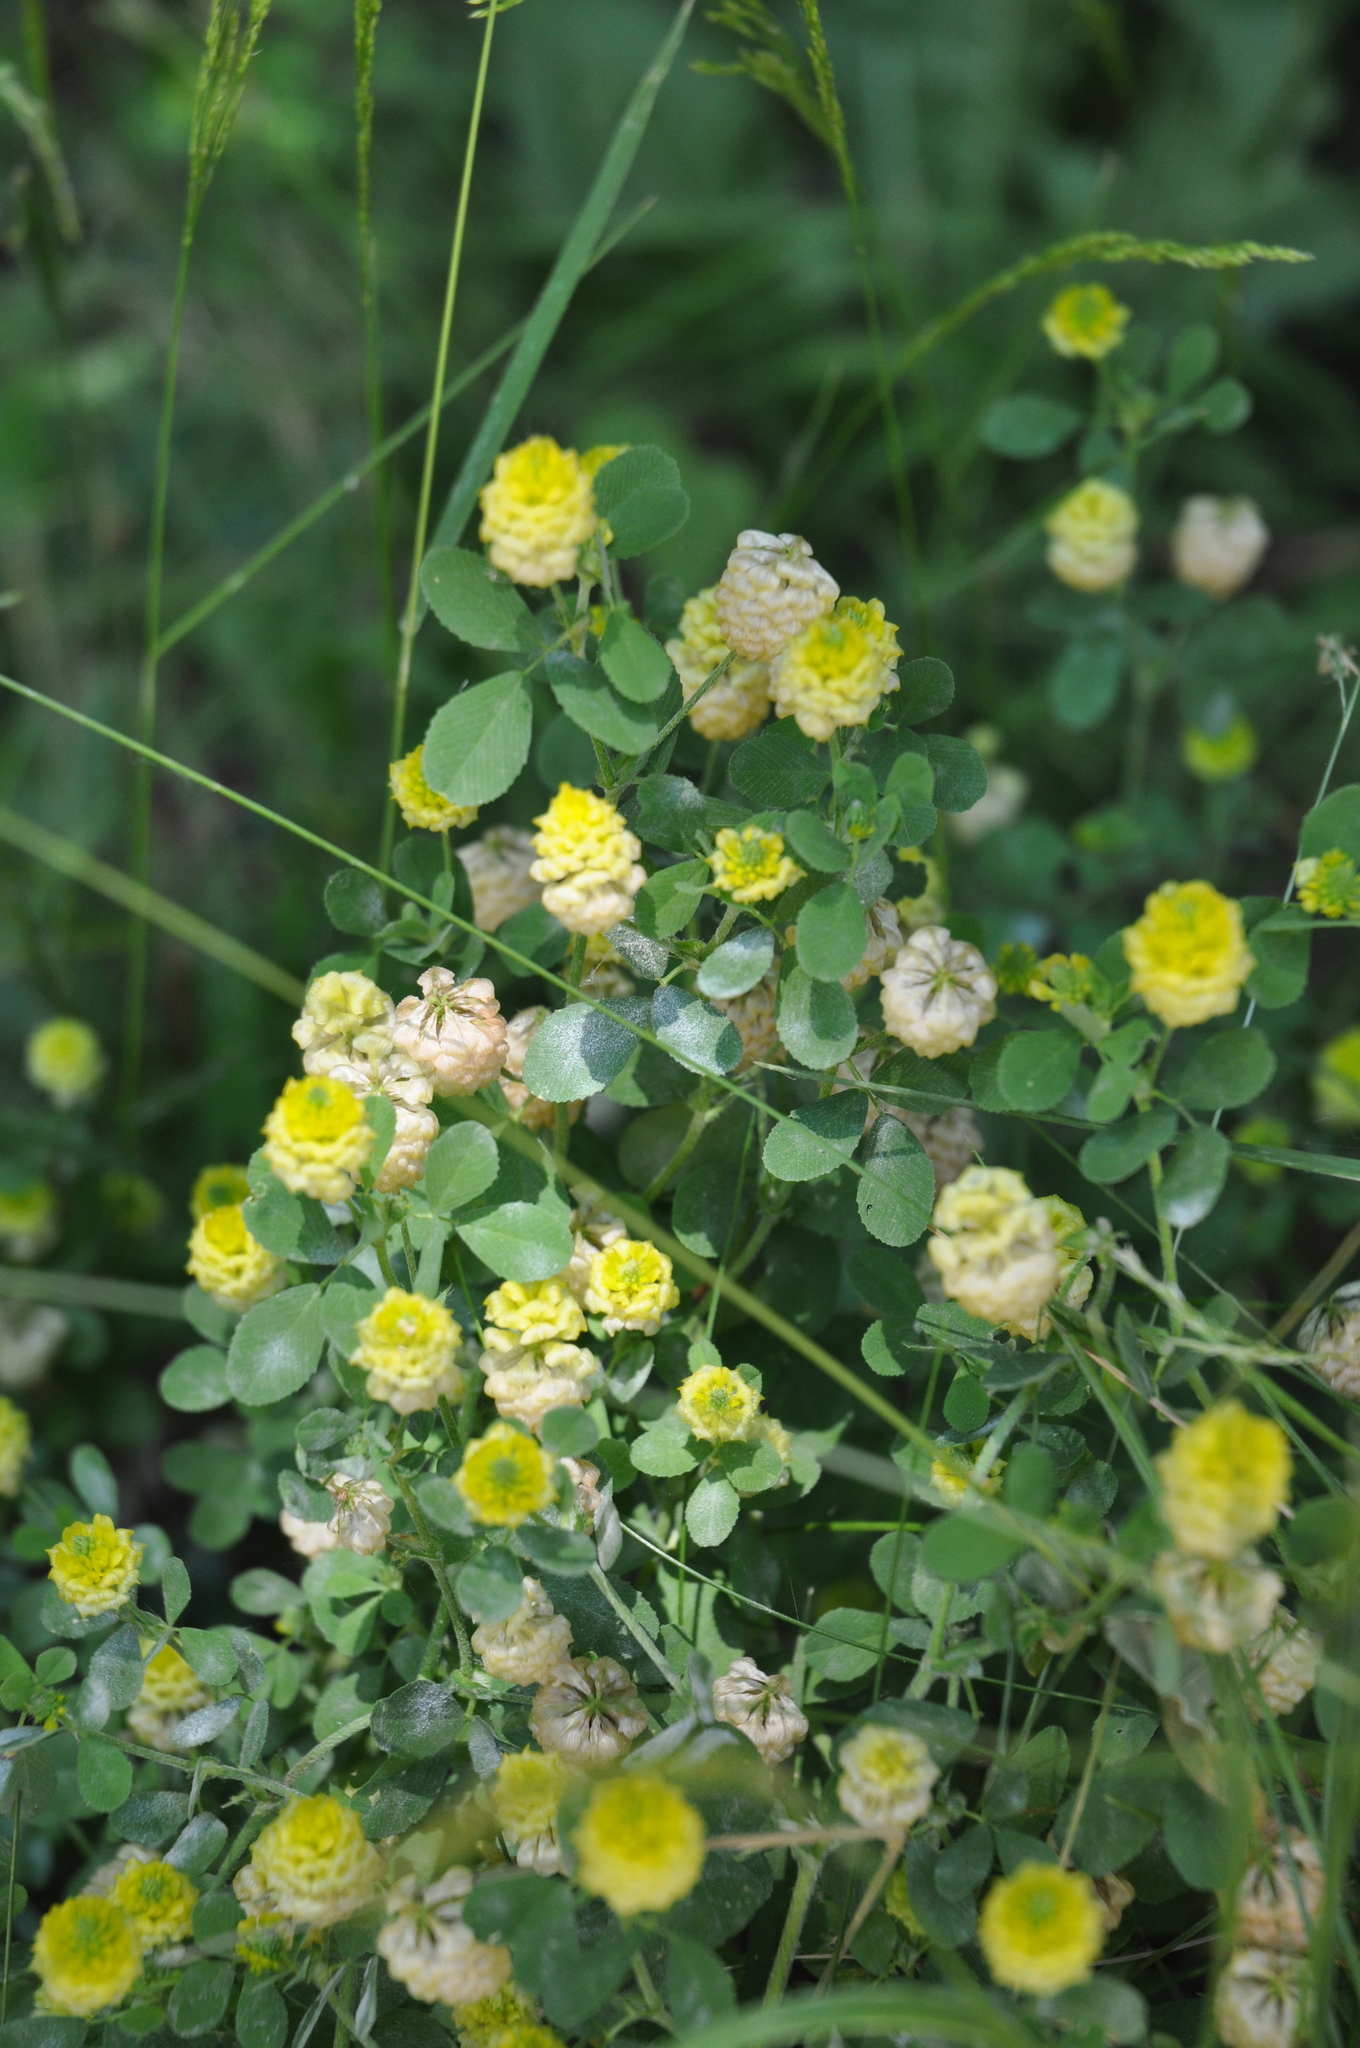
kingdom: Plantae
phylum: Tracheophyta
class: Magnoliopsida
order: Fabales
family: Fabaceae
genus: Trifolium
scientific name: Trifolium campestre
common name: Field clover
